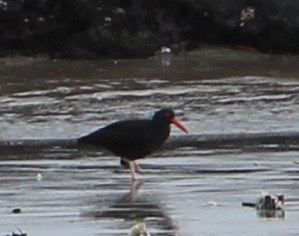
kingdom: Animalia
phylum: Chordata
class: Aves
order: Charadriiformes
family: Haematopodidae
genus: Haematopus
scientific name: Haematopus bachmani
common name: Black oystercatcher
